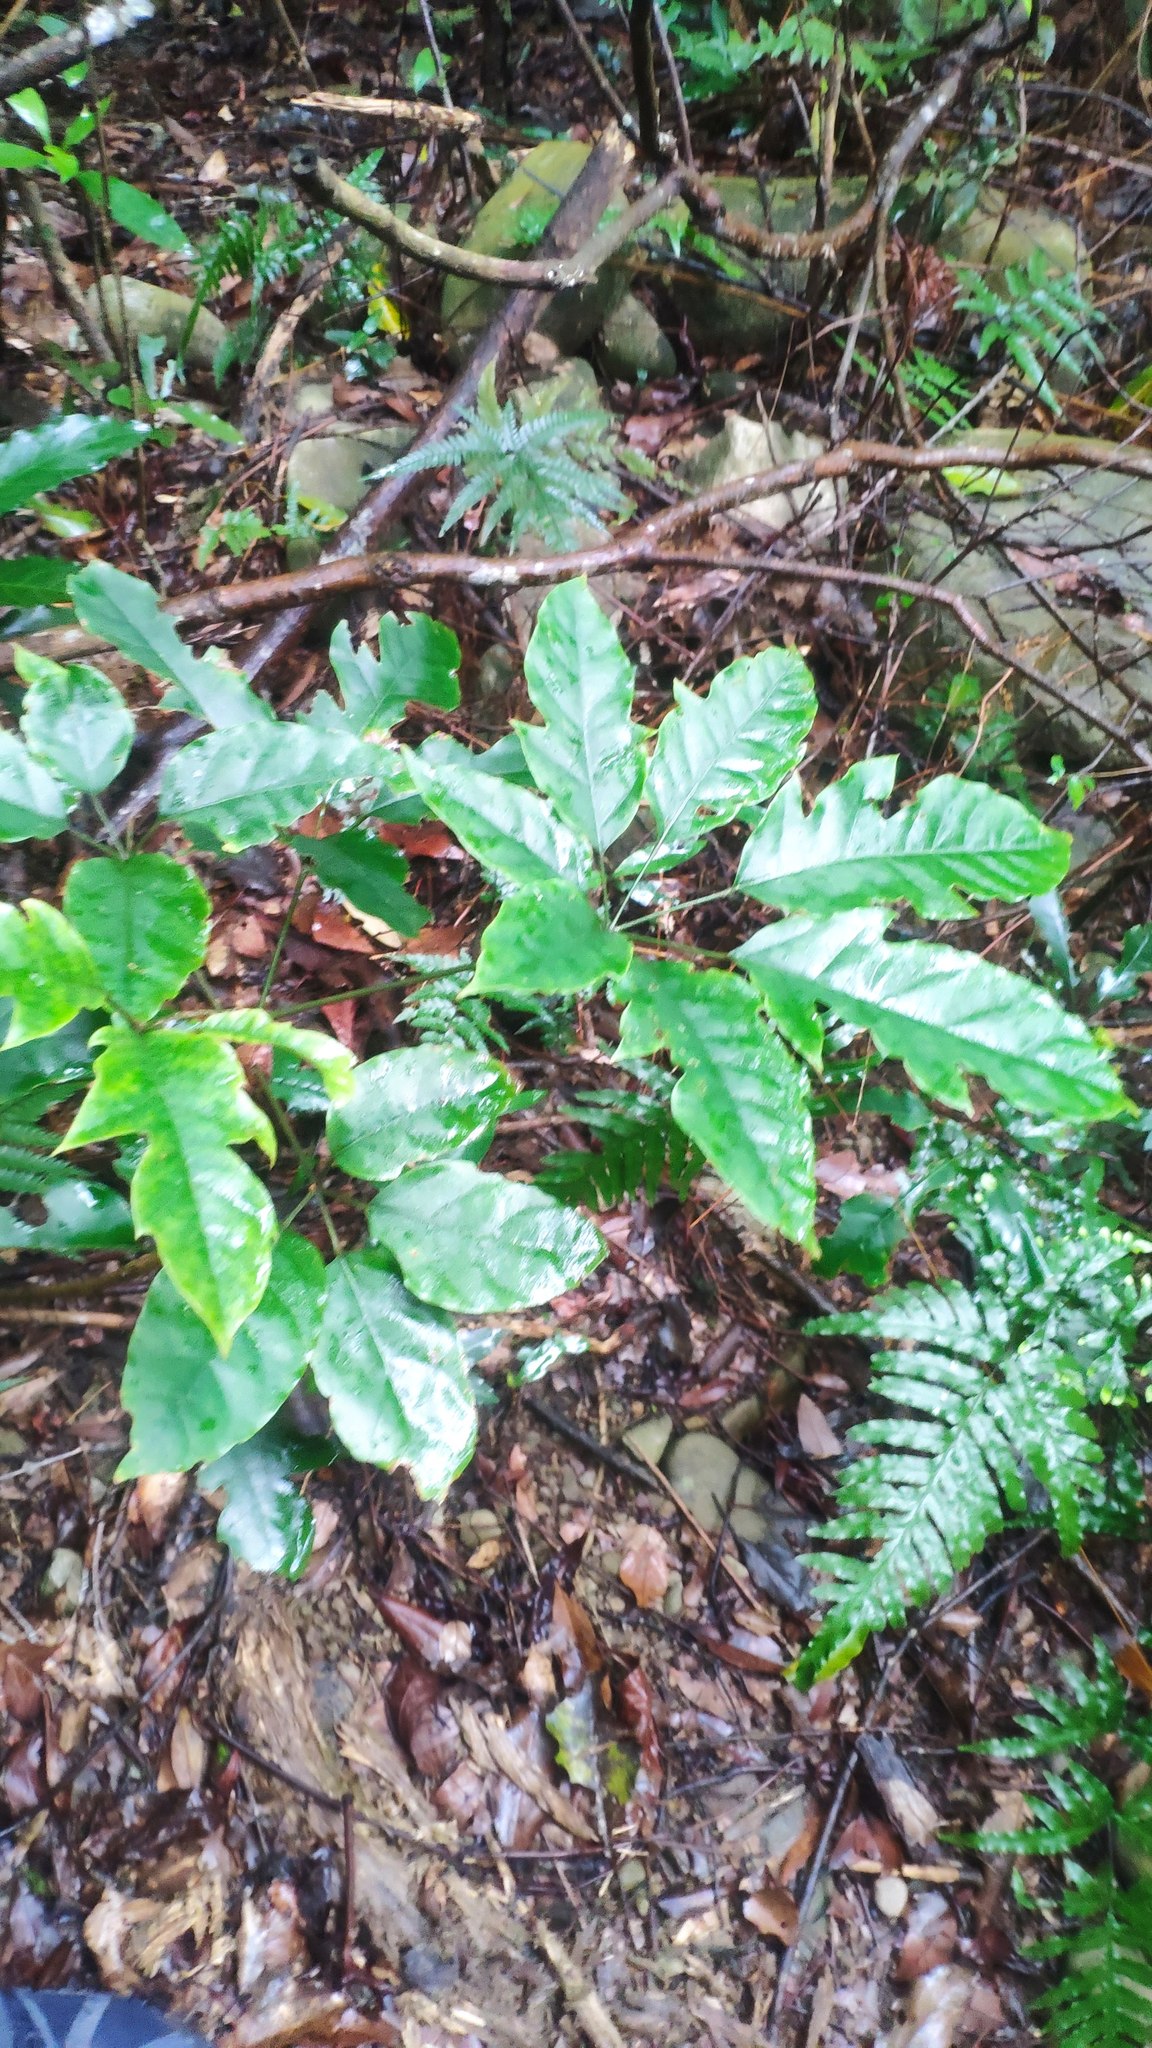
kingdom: Plantae
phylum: Tracheophyta
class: Magnoliopsida
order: Apiales
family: Araliaceae
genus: Heptapleurum
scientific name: Heptapleurum heptaphyllum
